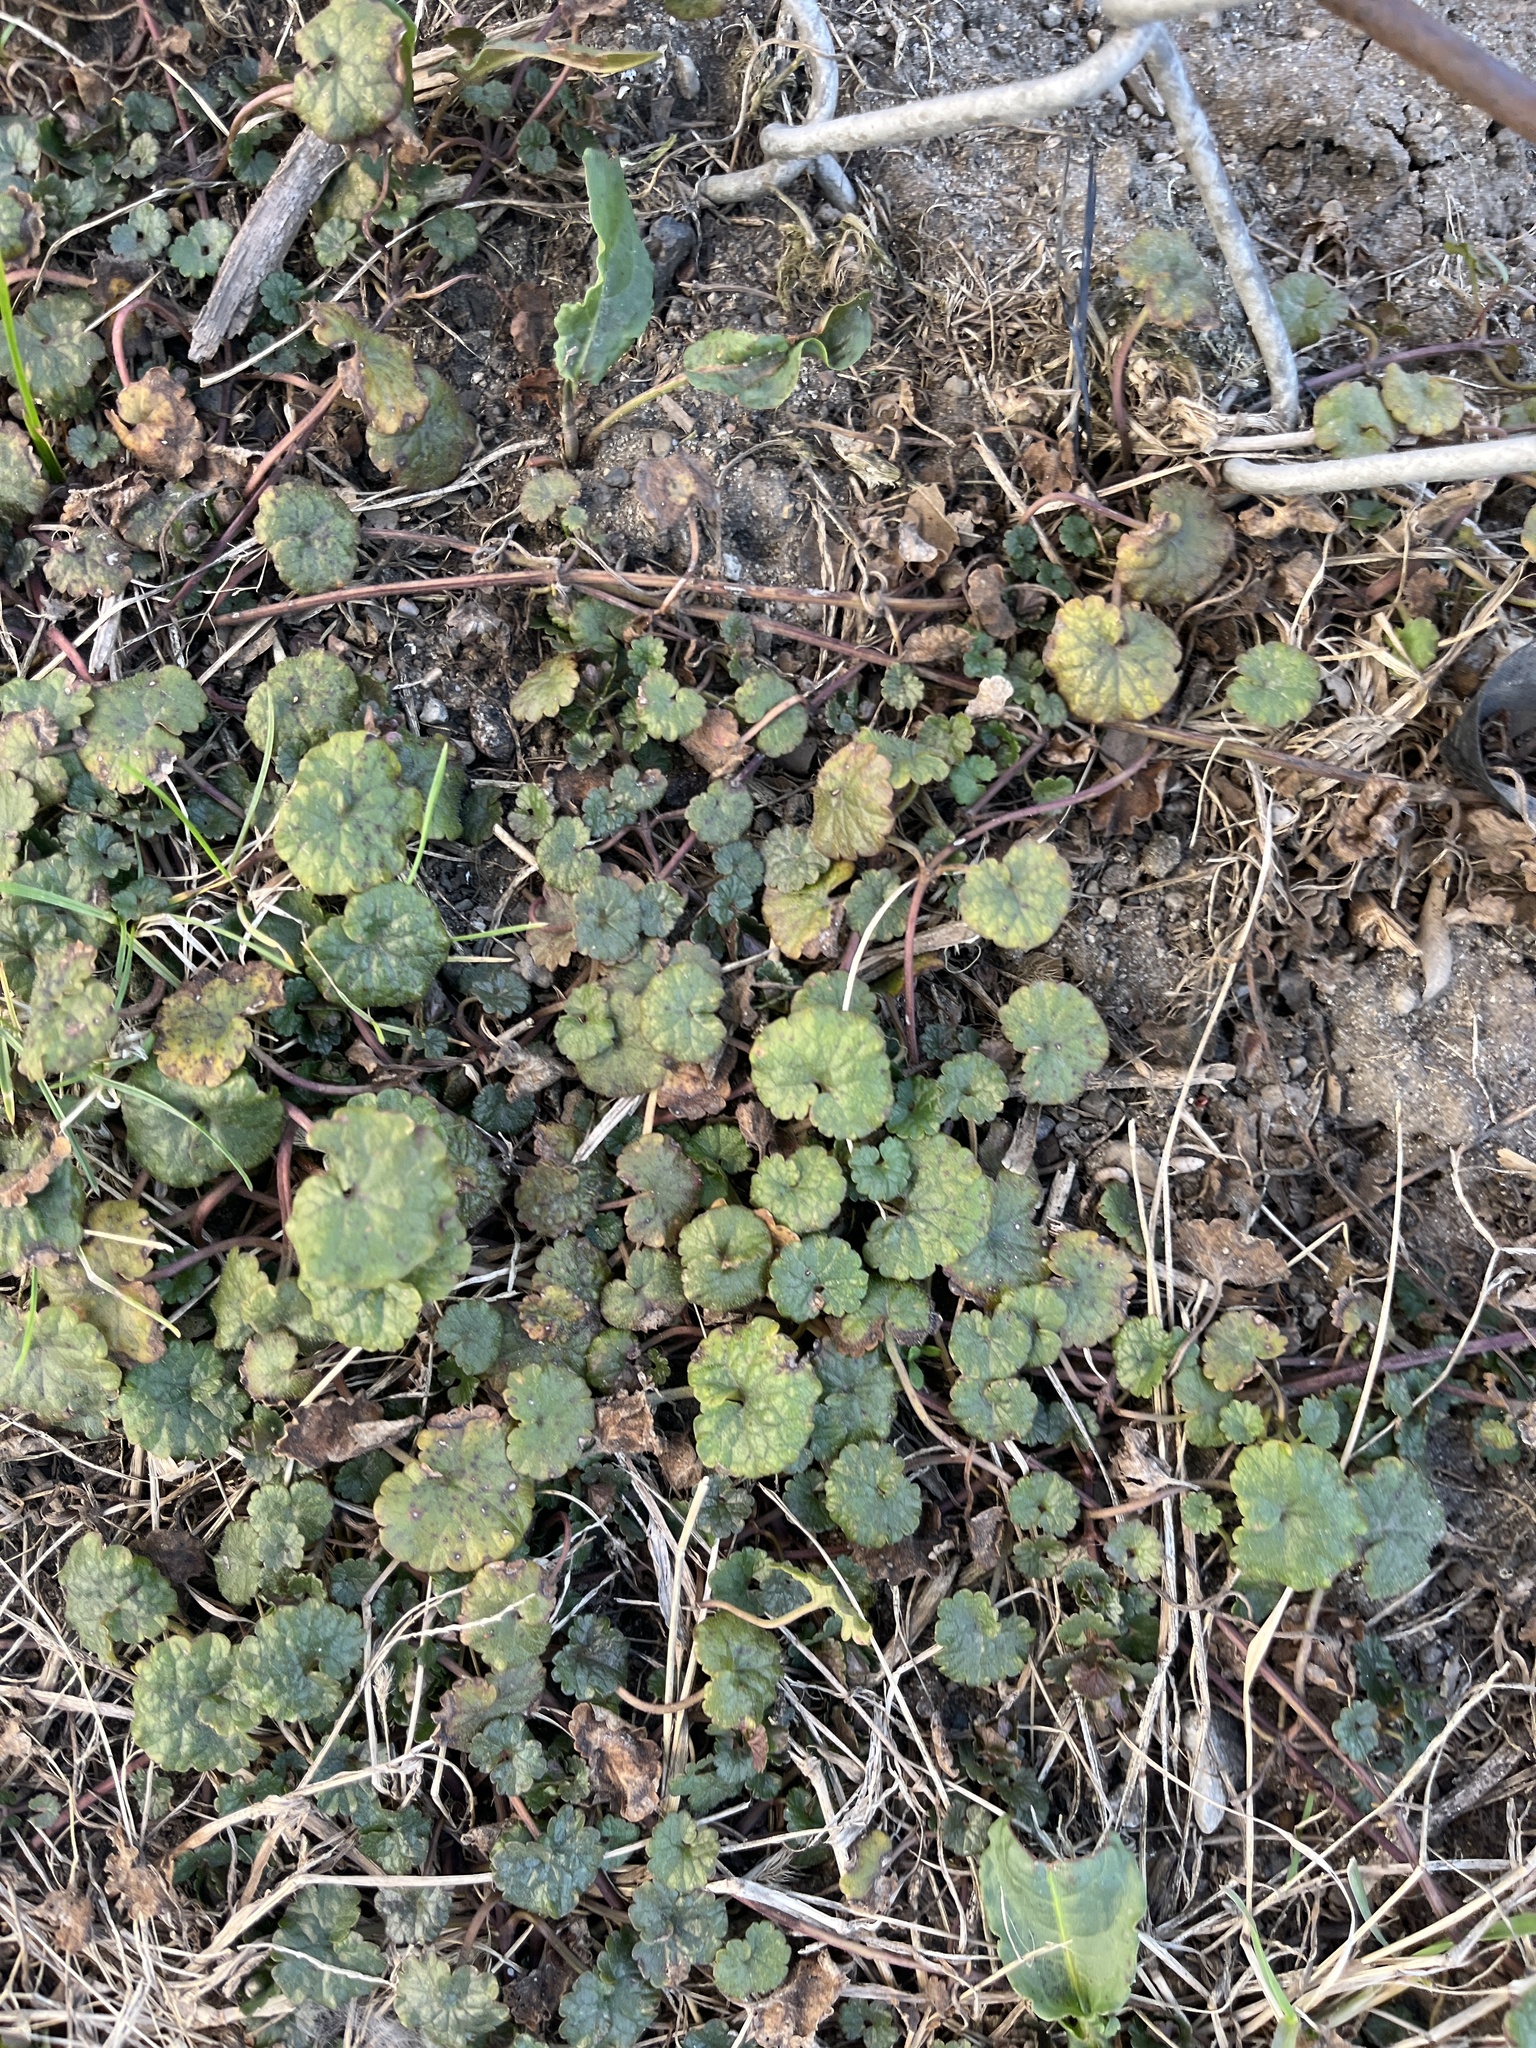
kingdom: Plantae
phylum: Tracheophyta
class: Magnoliopsida
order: Lamiales
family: Lamiaceae
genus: Glechoma
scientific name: Glechoma hederacea
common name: Ground ivy
